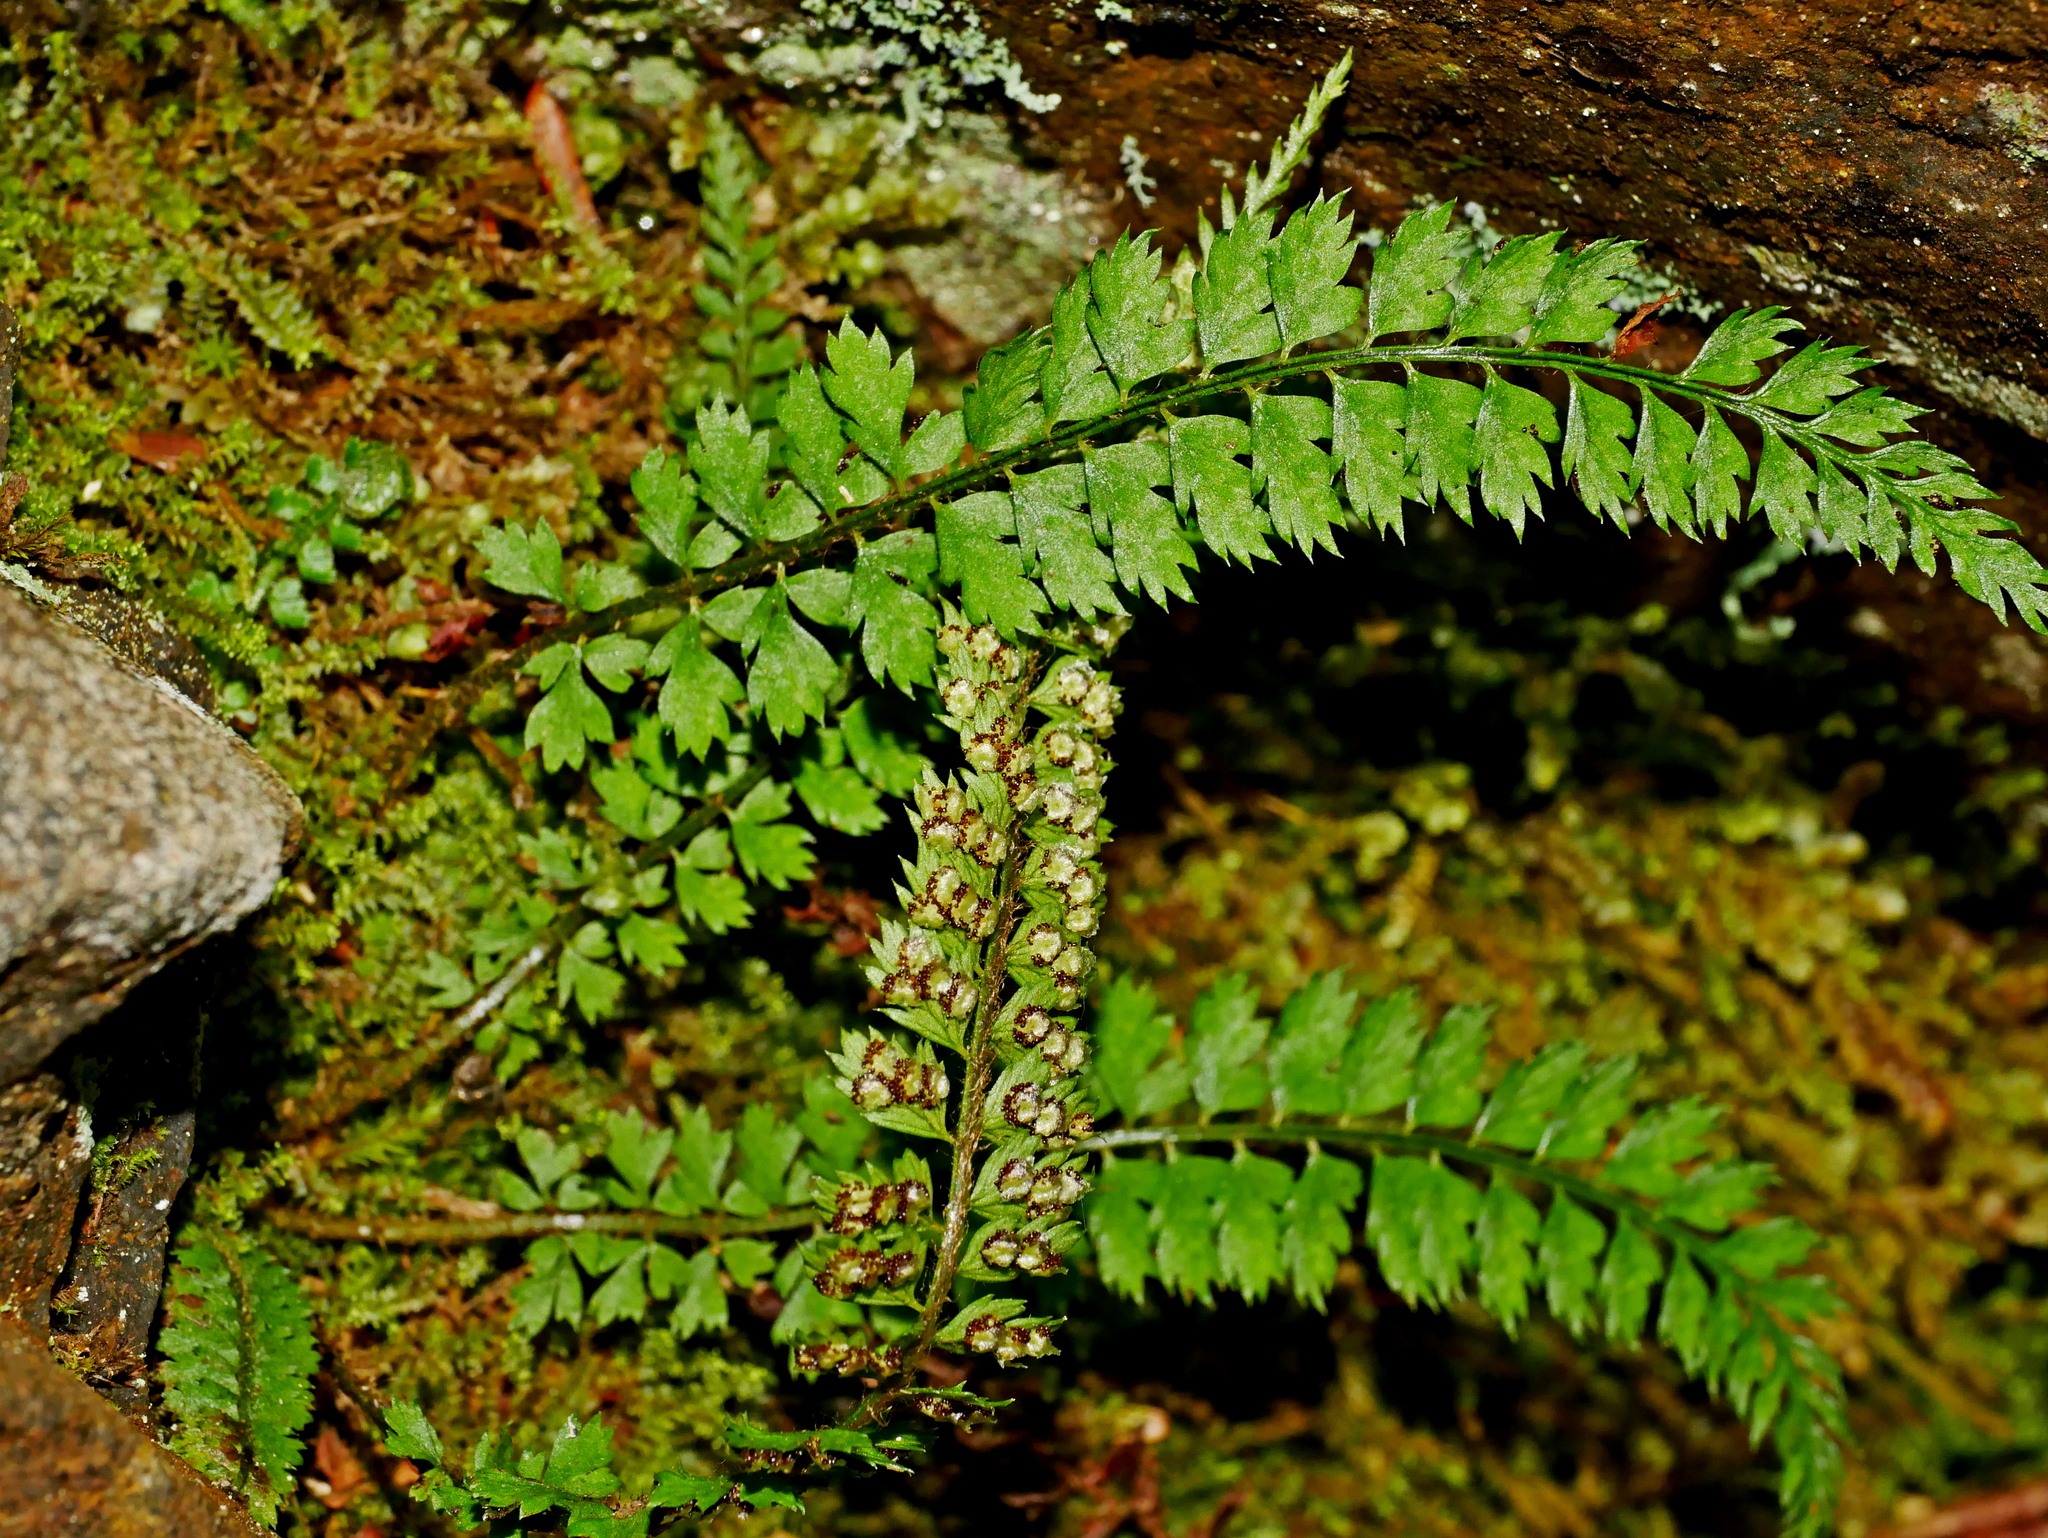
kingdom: Plantae
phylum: Tracheophyta
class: Polypodiopsida
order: Polypodiales
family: Dryopteridaceae
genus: Polystichum
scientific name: Polystichum thomsonii
